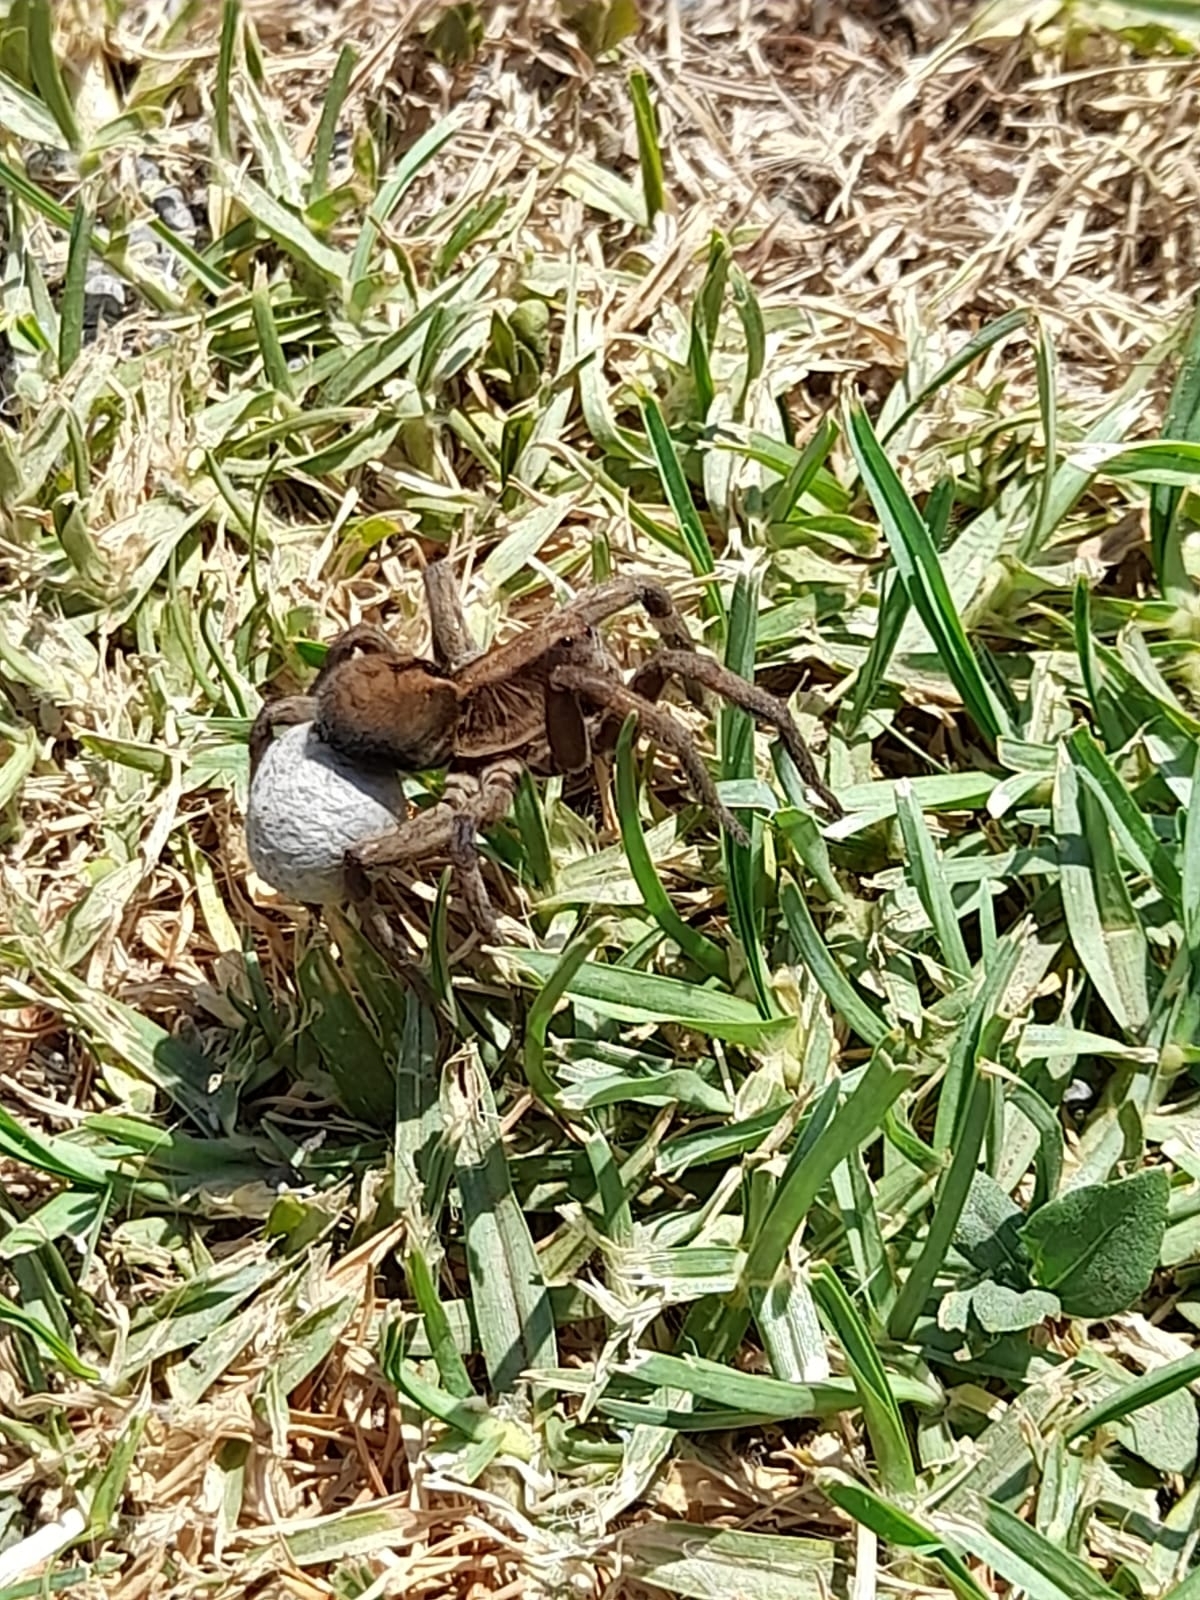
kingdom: Animalia
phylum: Arthropoda
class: Arachnida
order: Araneae
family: Lycosidae
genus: Lycosa
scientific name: Lycosa erythrognatha
